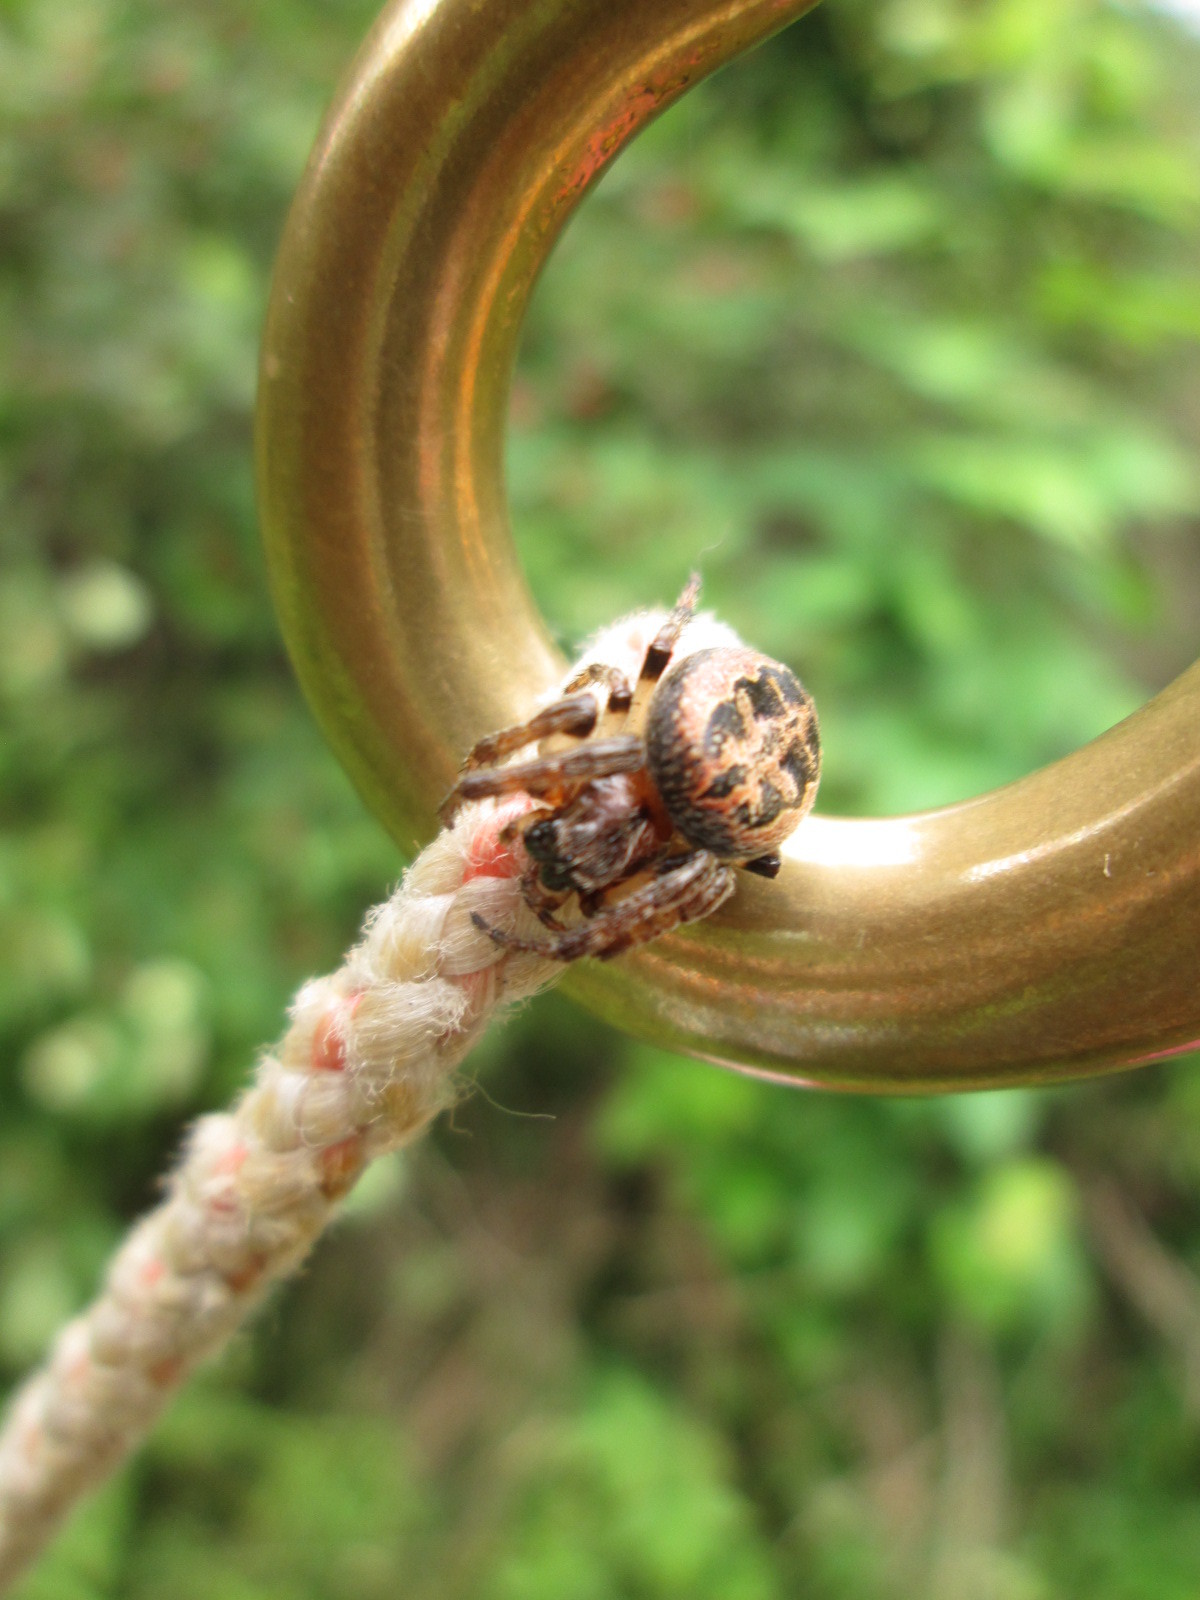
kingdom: Animalia
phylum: Arthropoda
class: Arachnida
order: Araneae
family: Araneidae
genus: Larinioides
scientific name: Larinioides cornutus
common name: Furrow orbweaver
